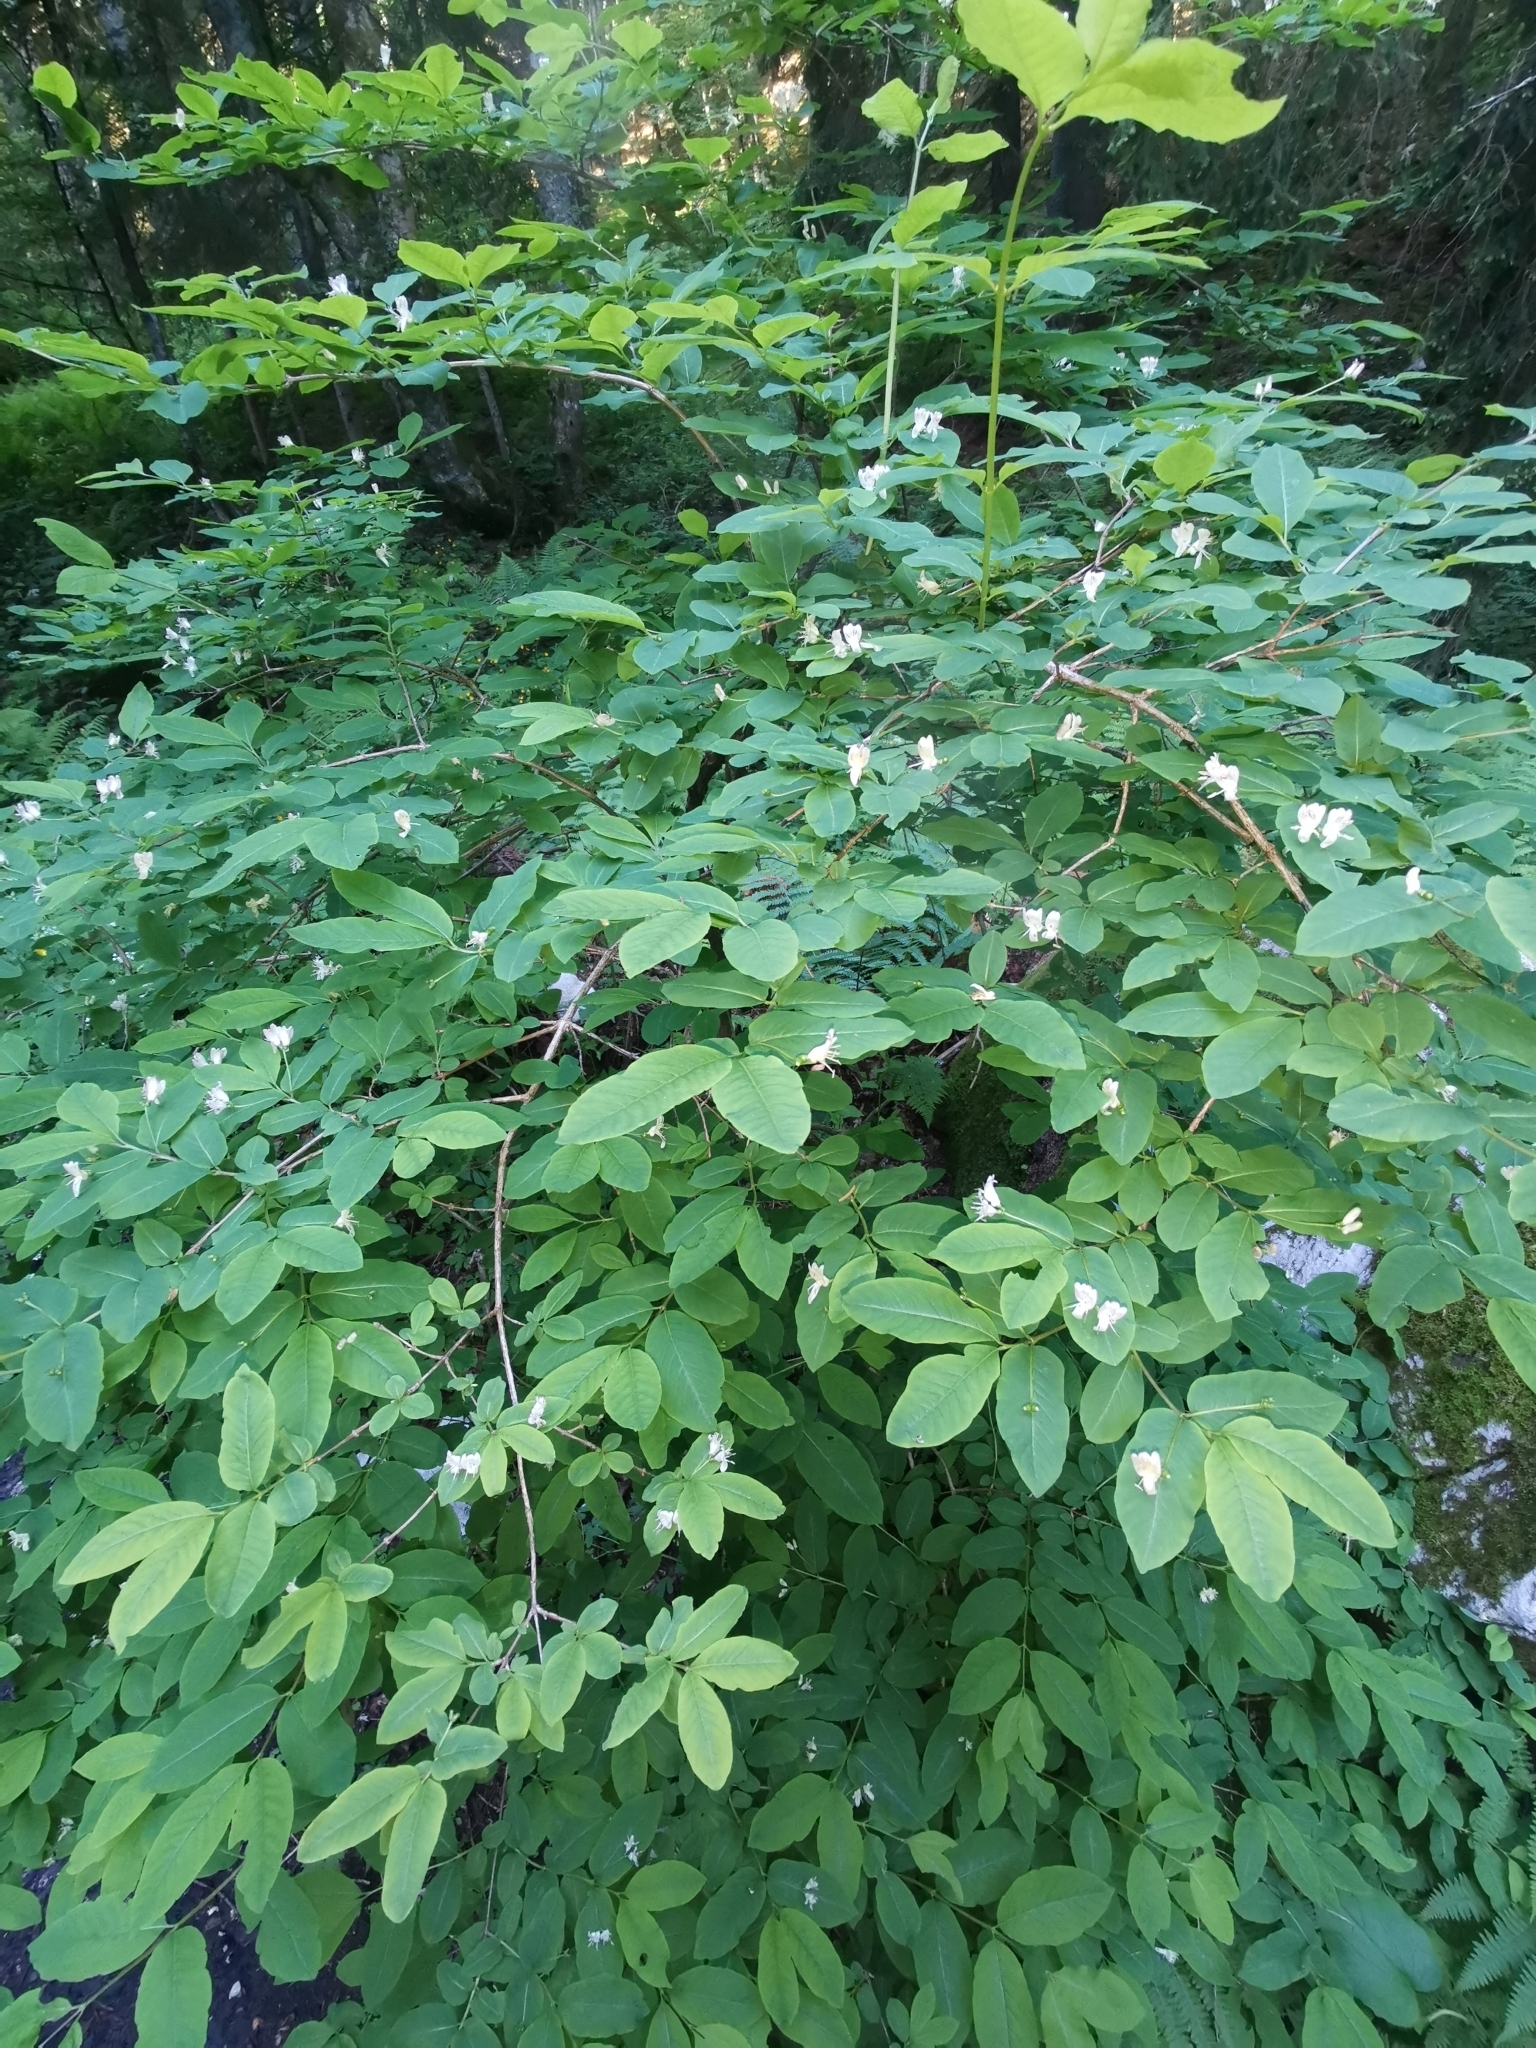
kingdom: Plantae
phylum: Tracheophyta
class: Magnoliopsida
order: Dipsacales
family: Caprifoliaceae
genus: Lonicera
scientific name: Lonicera nigra
